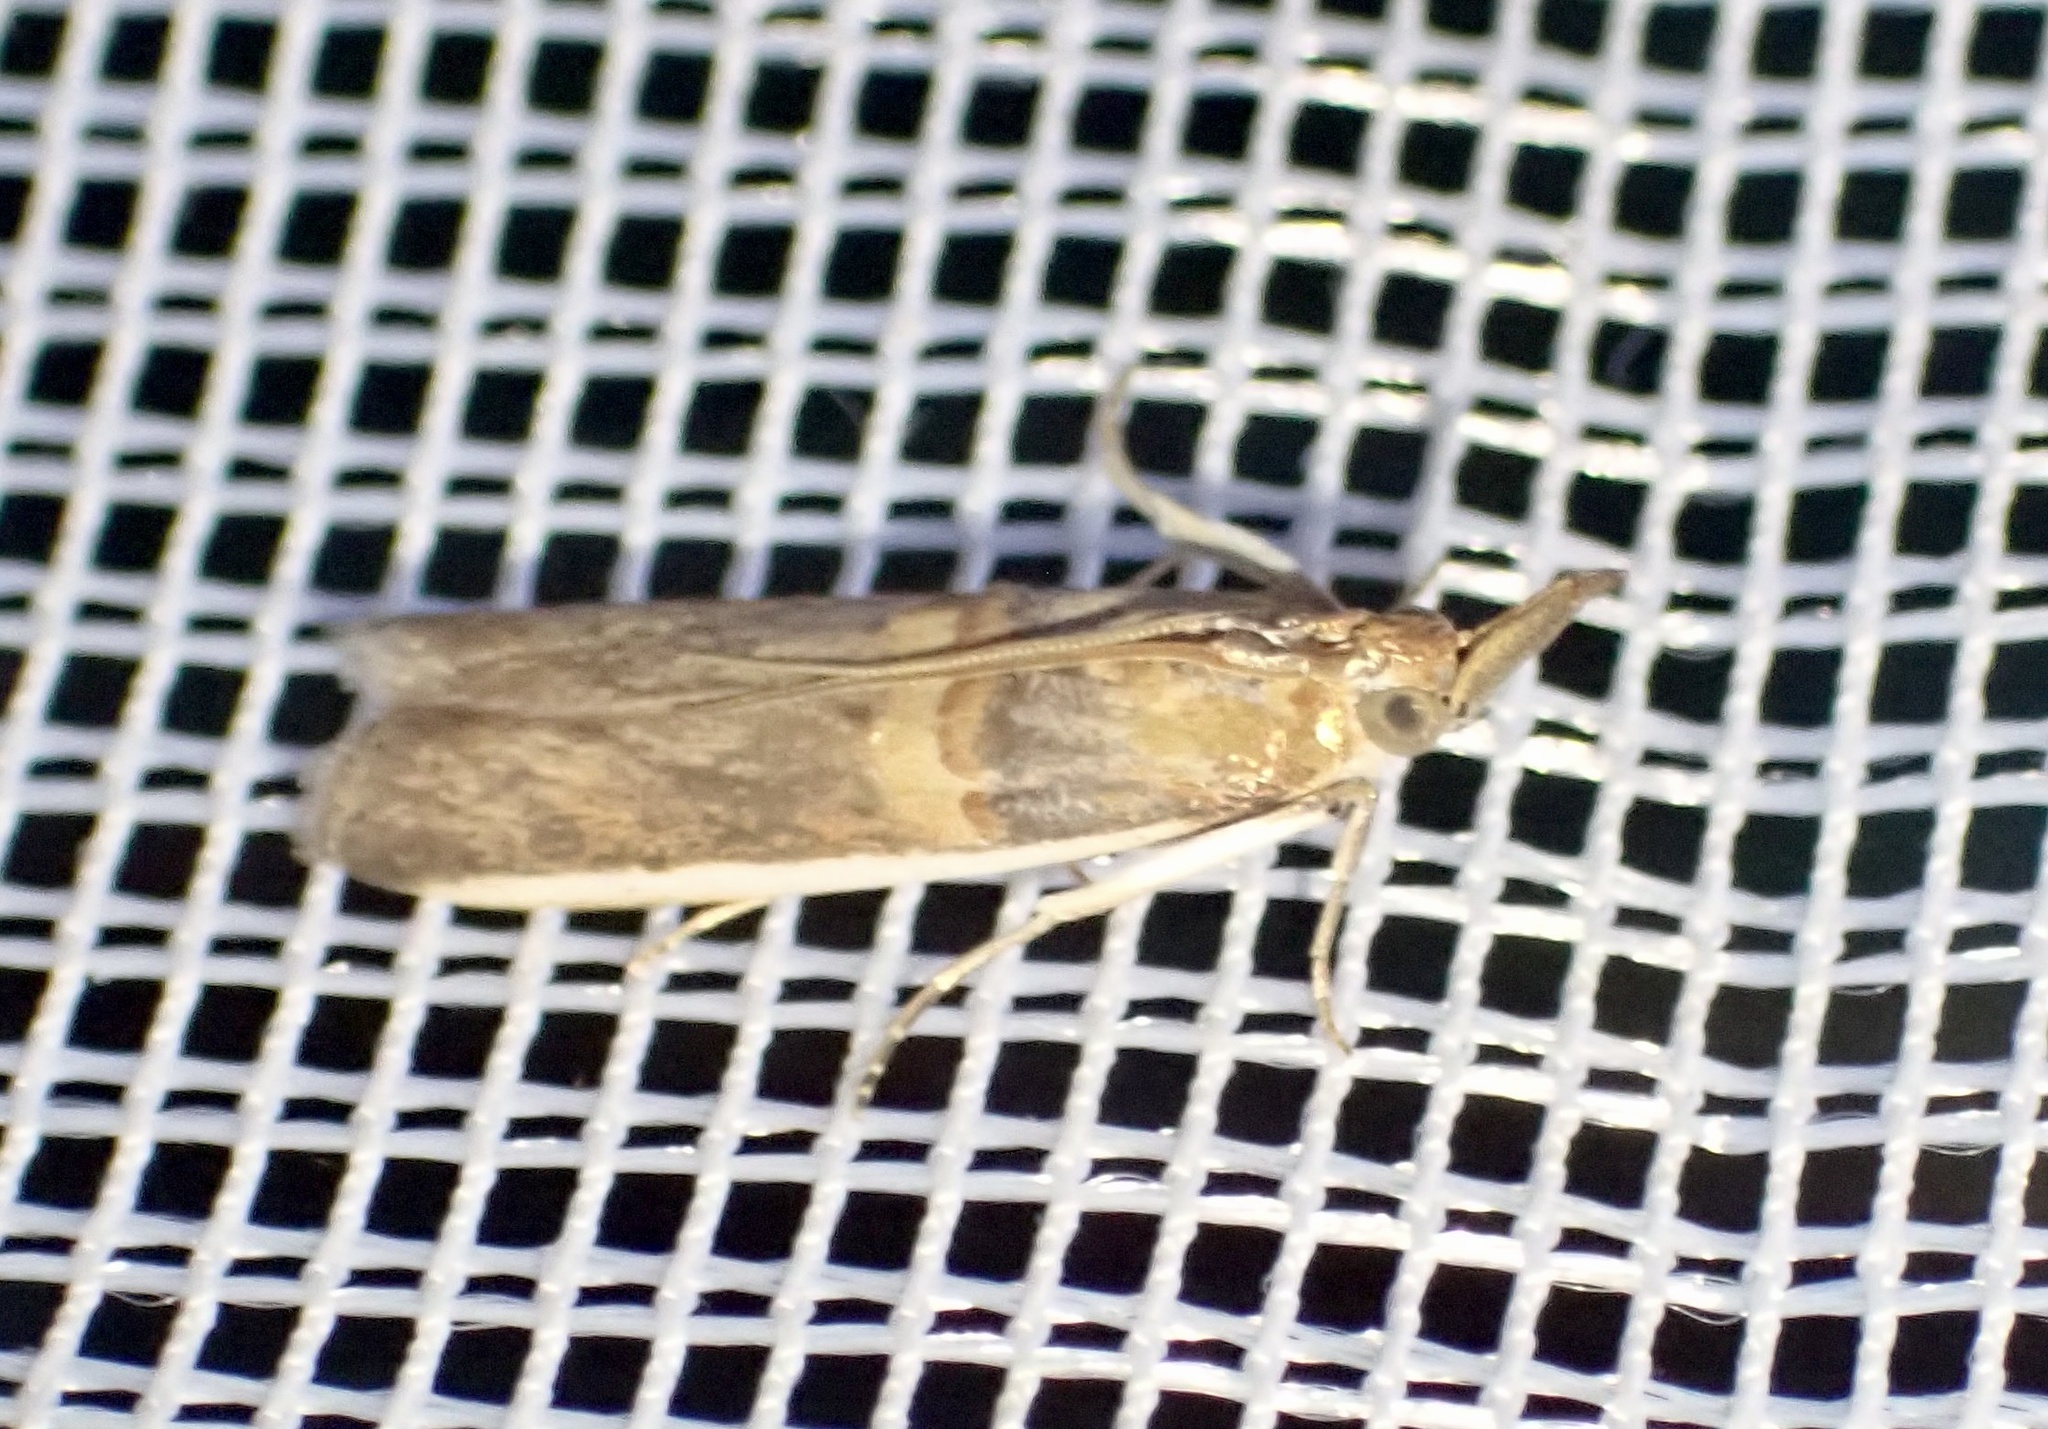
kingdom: Animalia
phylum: Arthropoda
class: Insecta
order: Lepidoptera
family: Pyralidae
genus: Etiella
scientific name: Etiella zinckenella
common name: Gold-banded etiella moth
